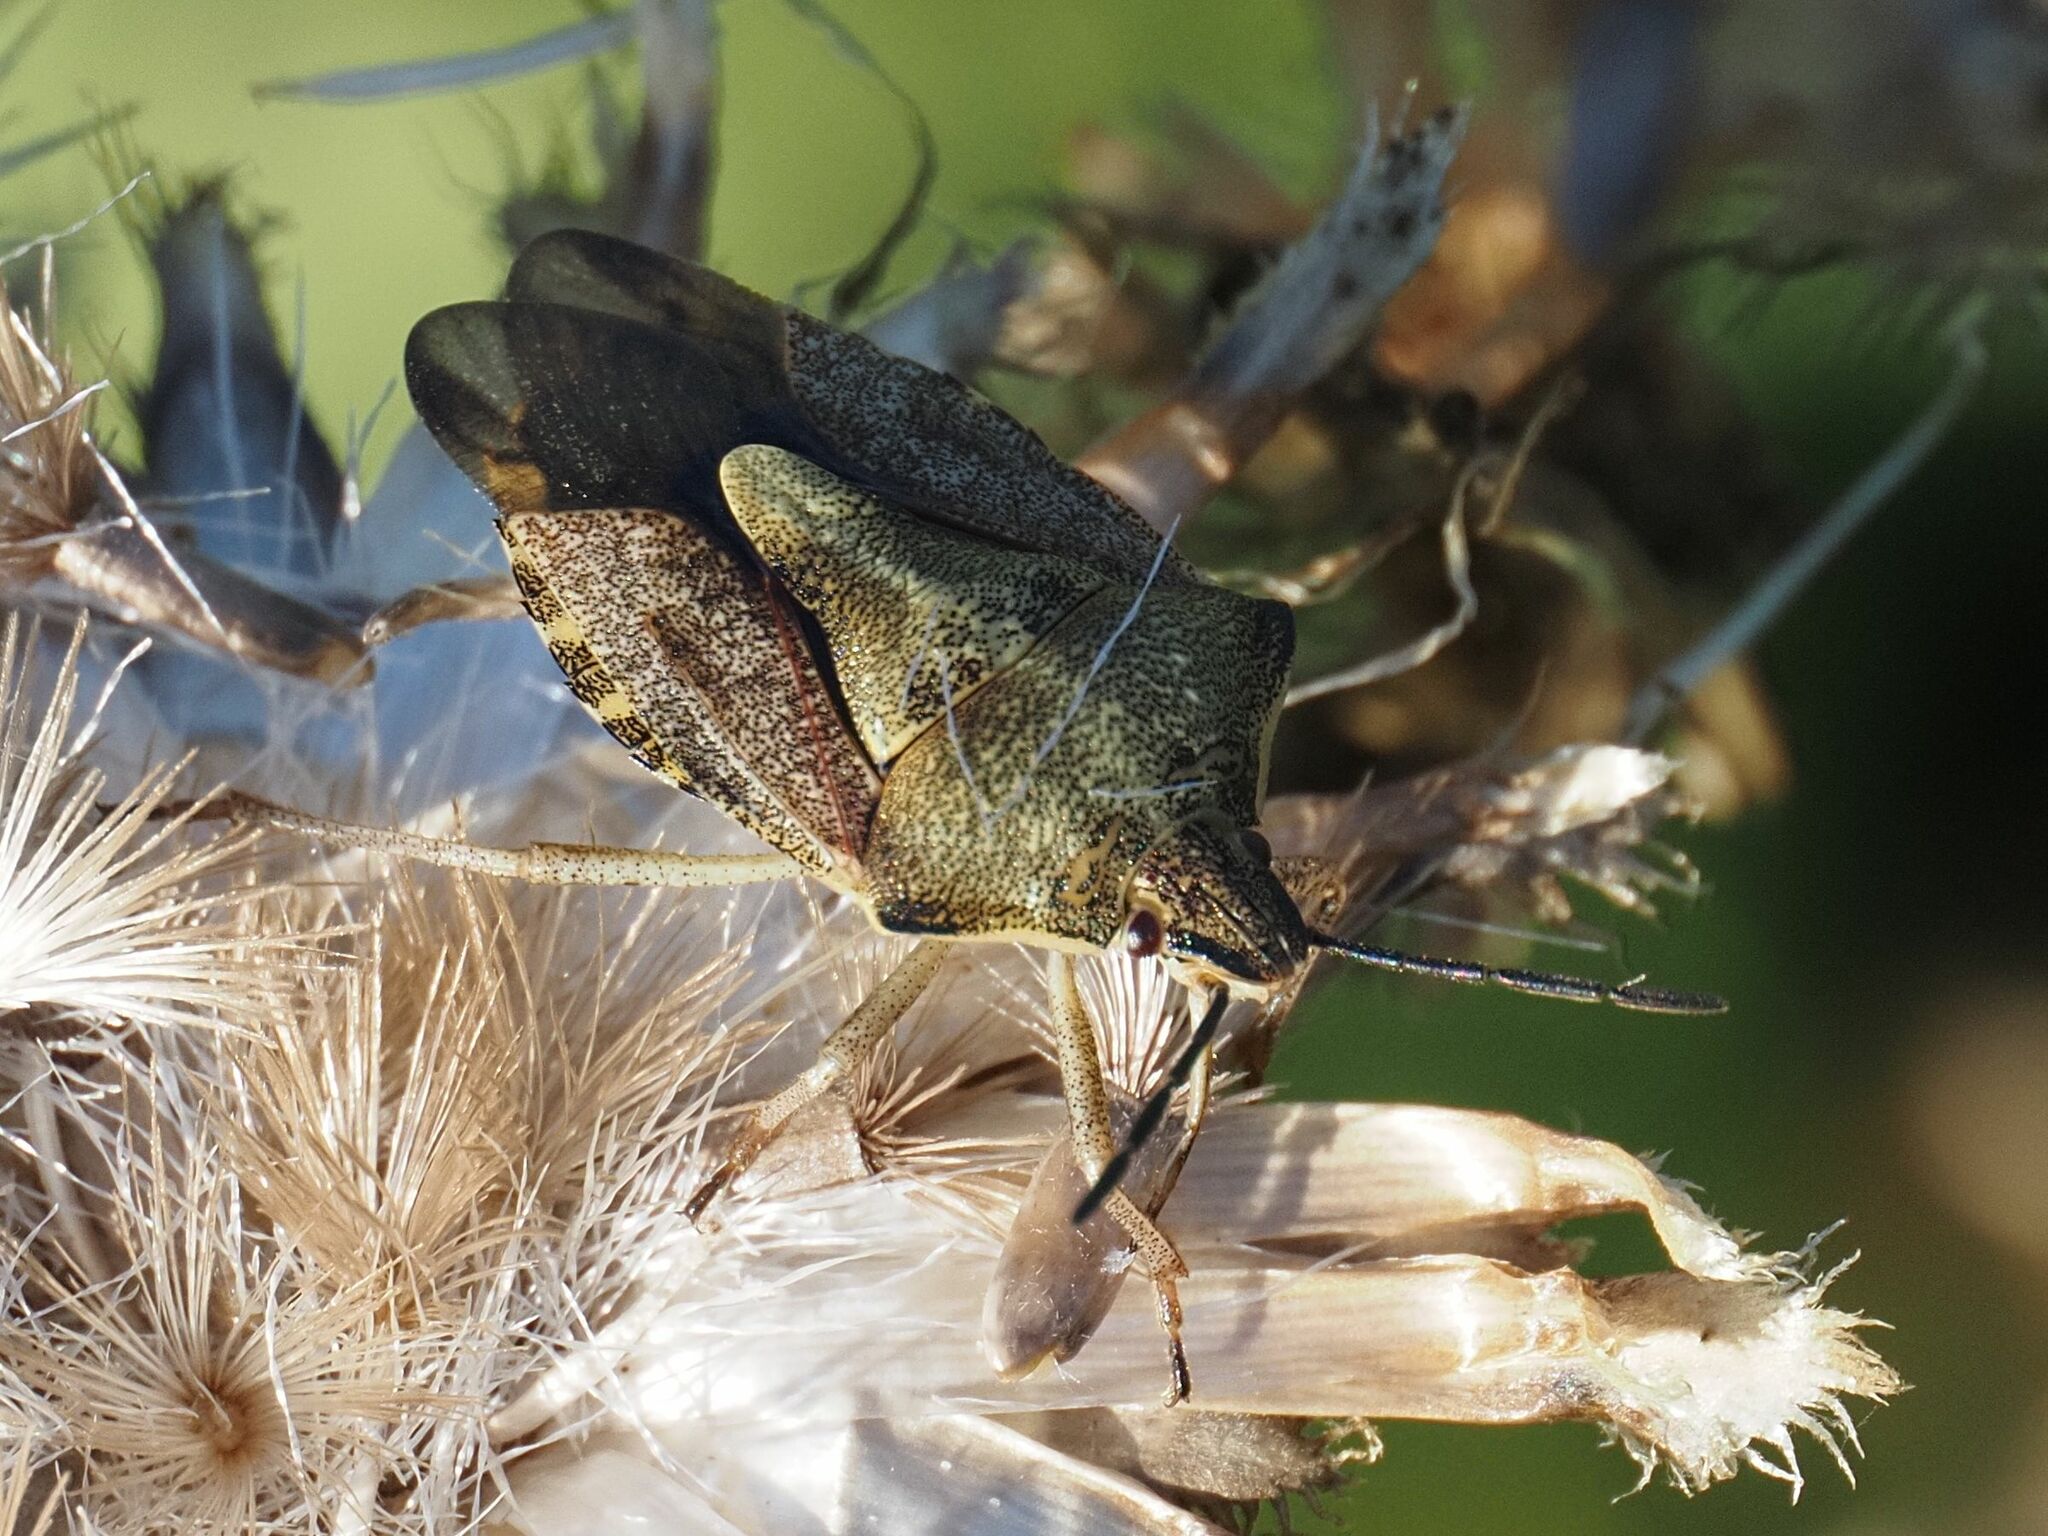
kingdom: Animalia
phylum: Arthropoda
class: Insecta
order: Hemiptera
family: Pentatomidae
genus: Carpocoris
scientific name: Carpocoris purpureipennis
